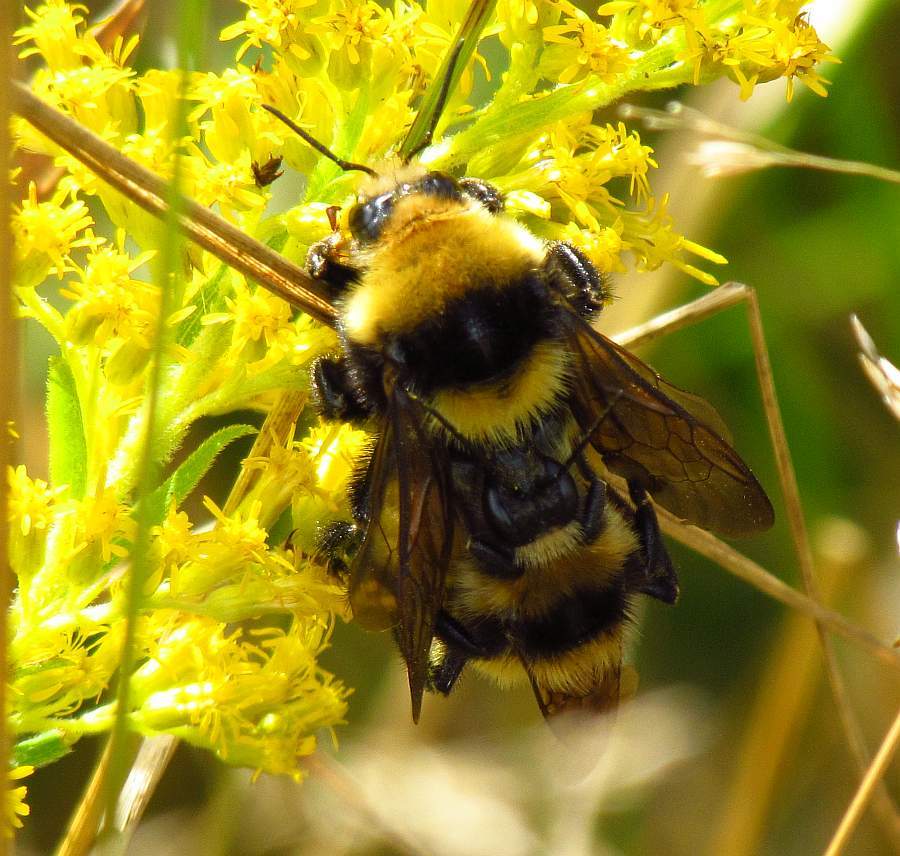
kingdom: Animalia
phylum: Arthropoda
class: Insecta
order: Hymenoptera
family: Apidae
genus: Bombus
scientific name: Bombus borealis
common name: Northern amber bumble bee
